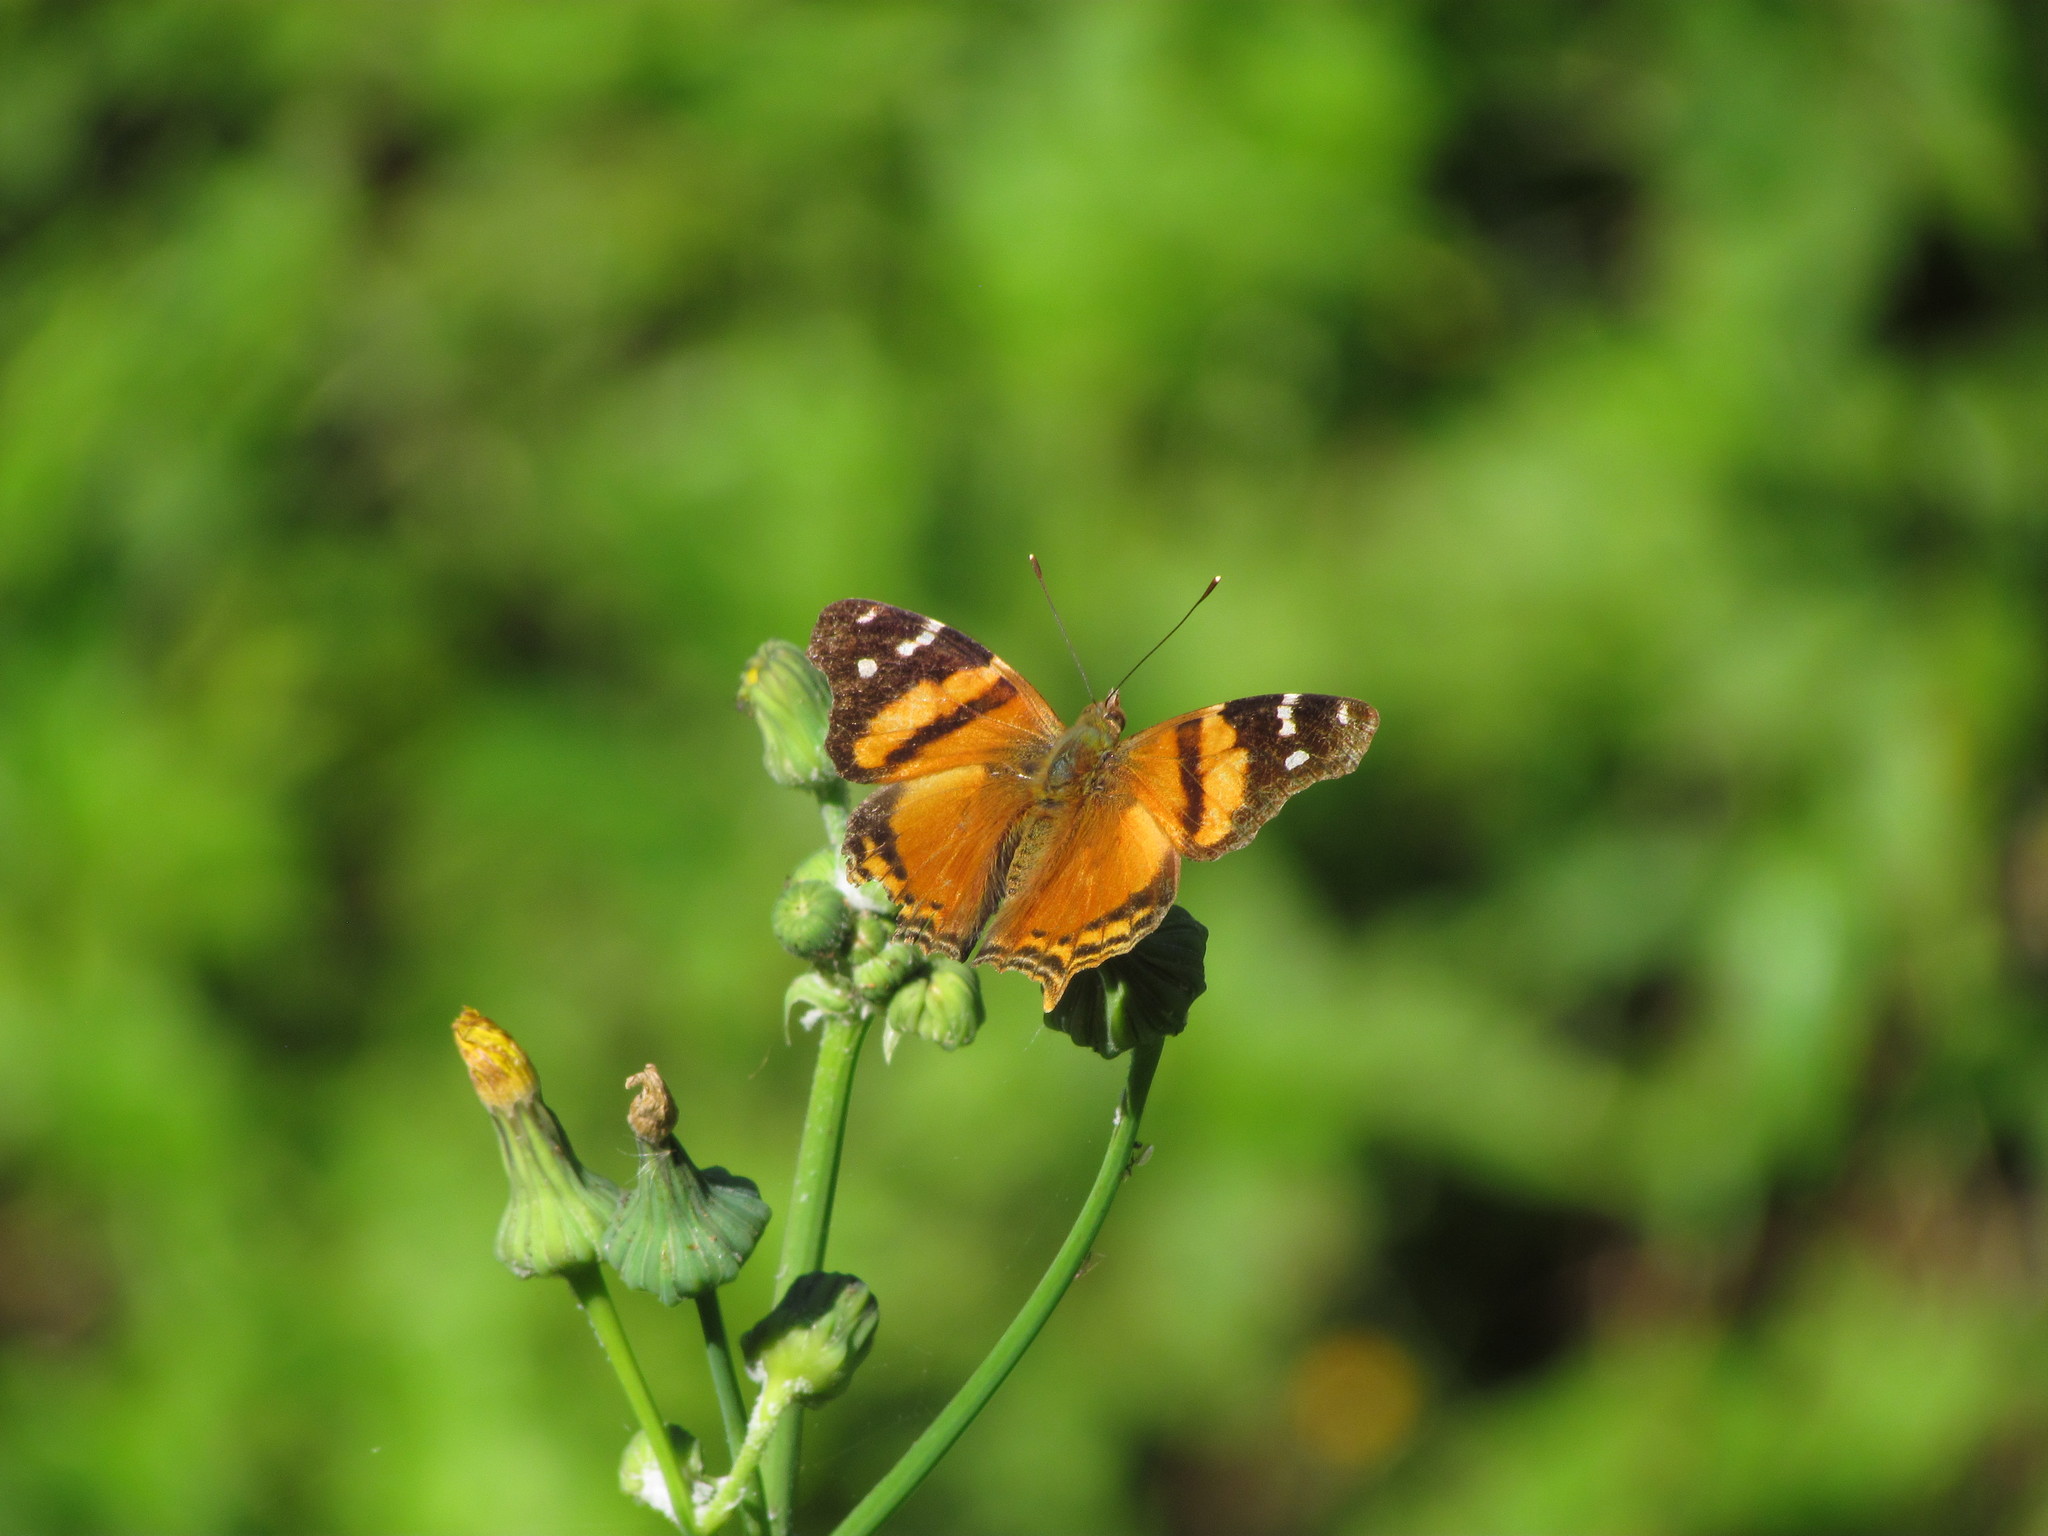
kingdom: Animalia
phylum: Arthropoda
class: Insecta
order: Lepidoptera
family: Nymphalidae
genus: Hypanartia
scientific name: Hypanartia bella
